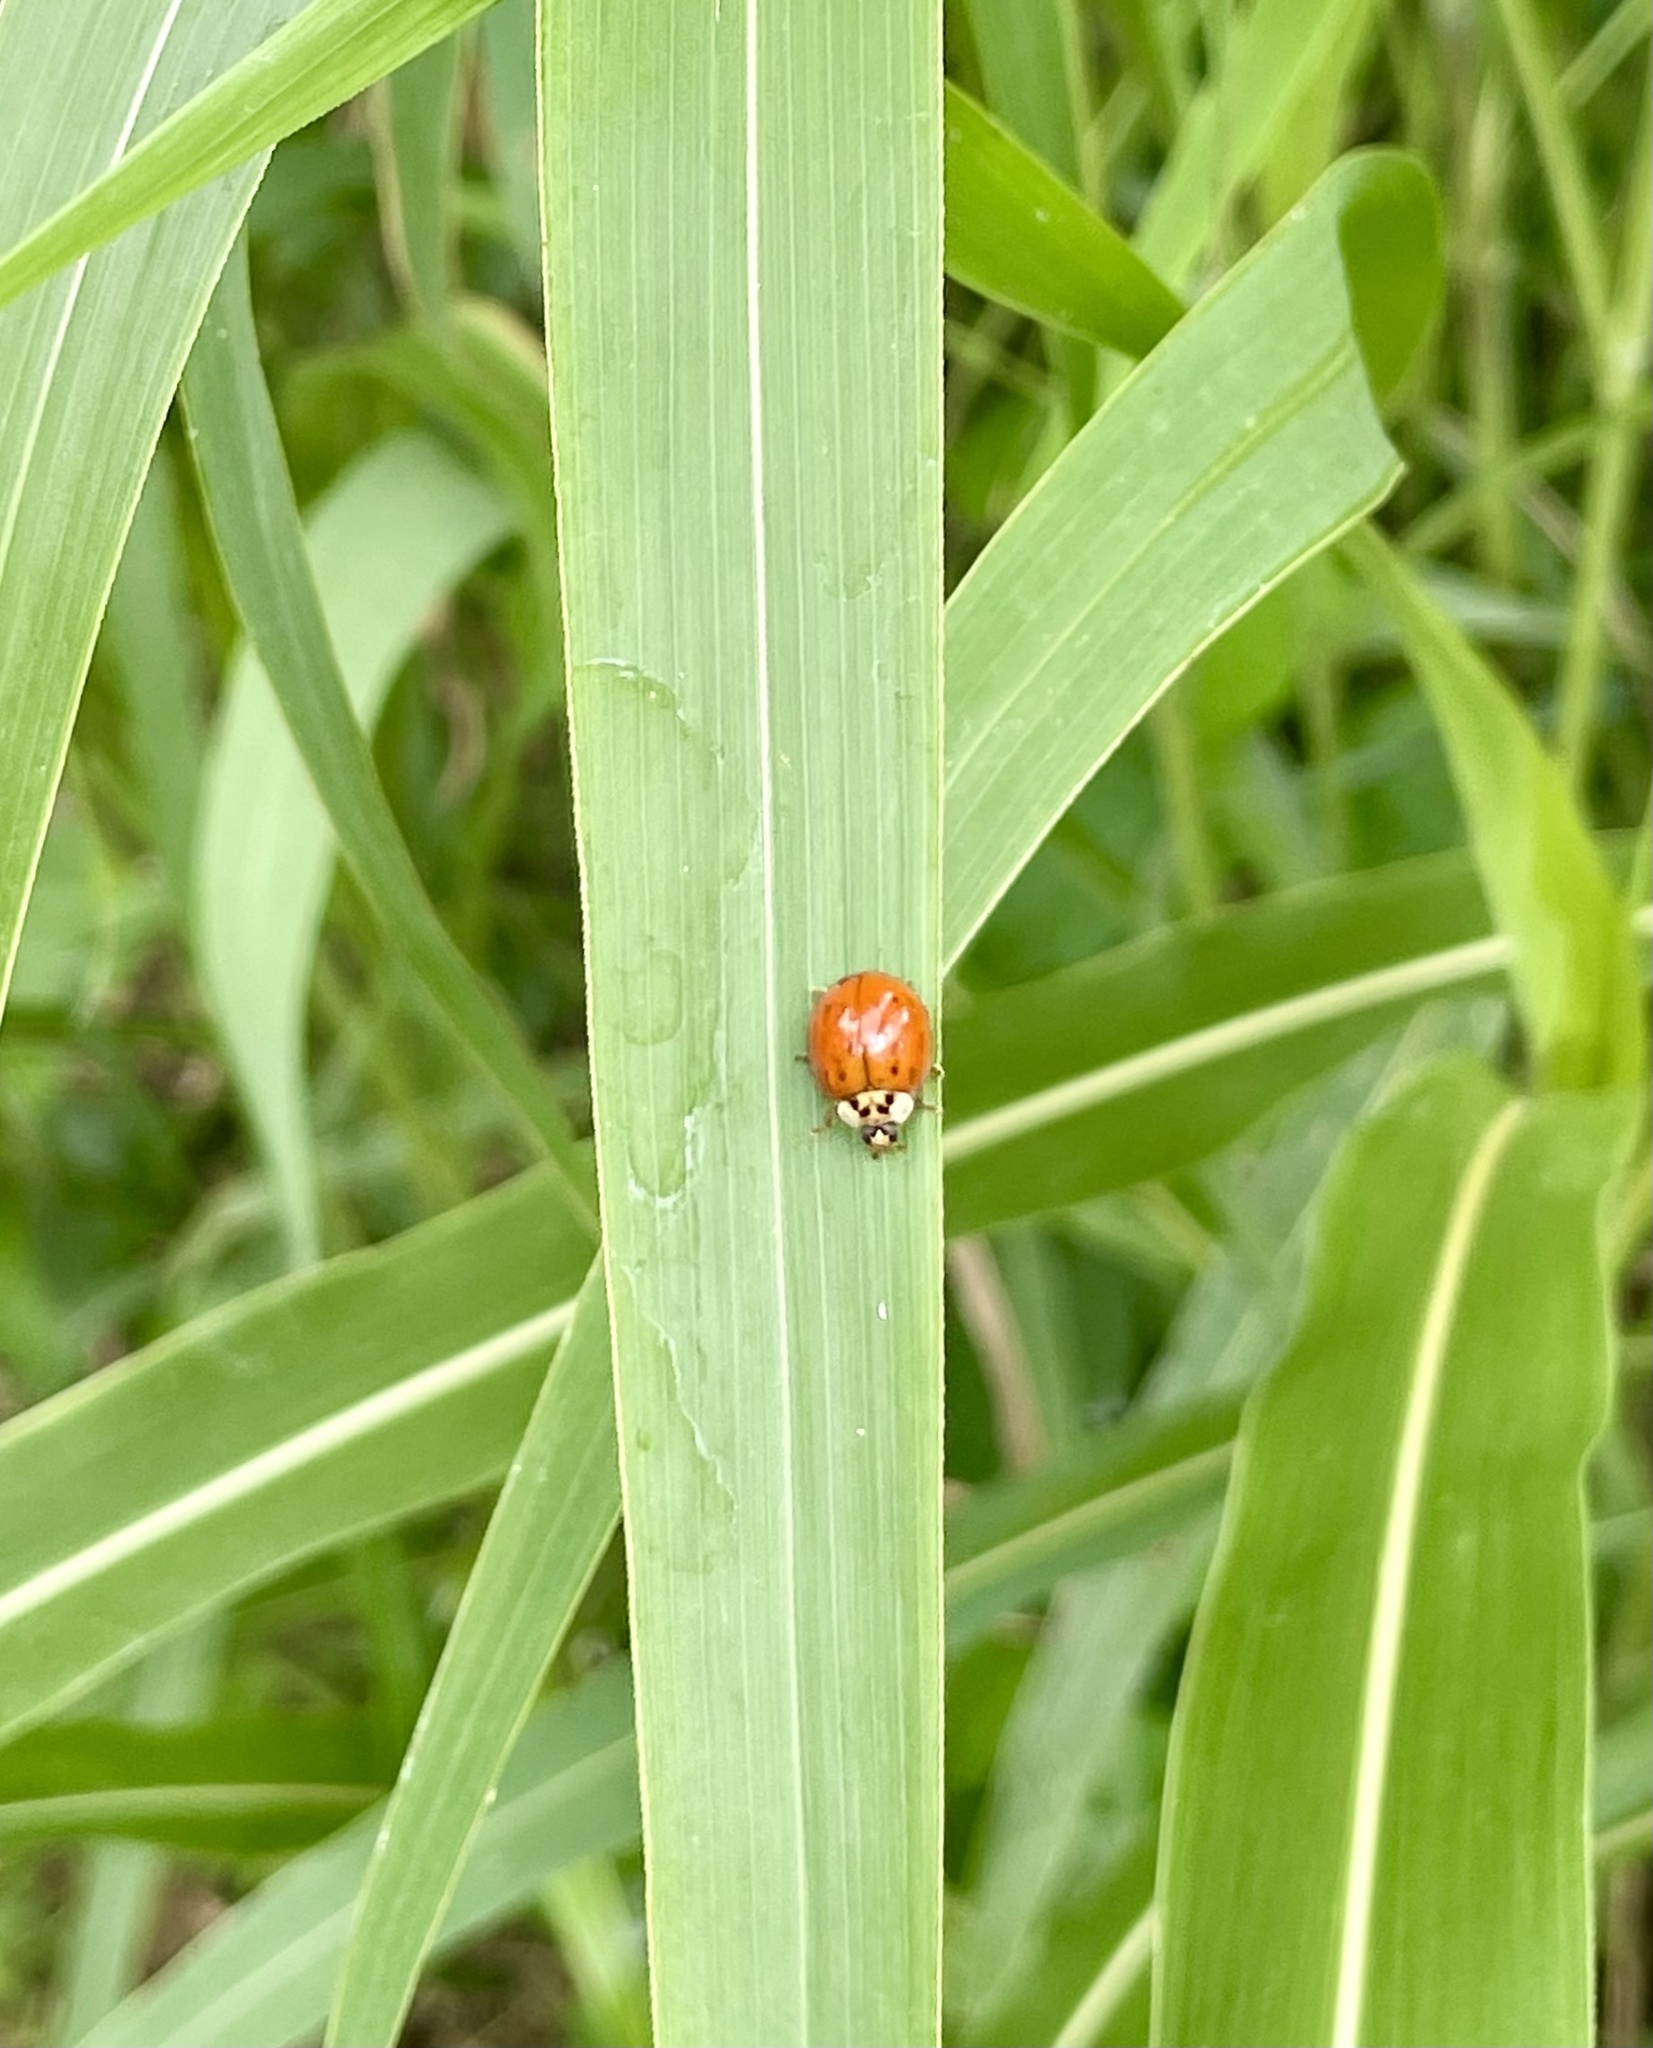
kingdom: Animalia
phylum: Arthropoda
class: Insecta
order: Coleoptera
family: Coccinellidae
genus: Harmonia
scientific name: Harmonia axyridis
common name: Harlequin ladybird
